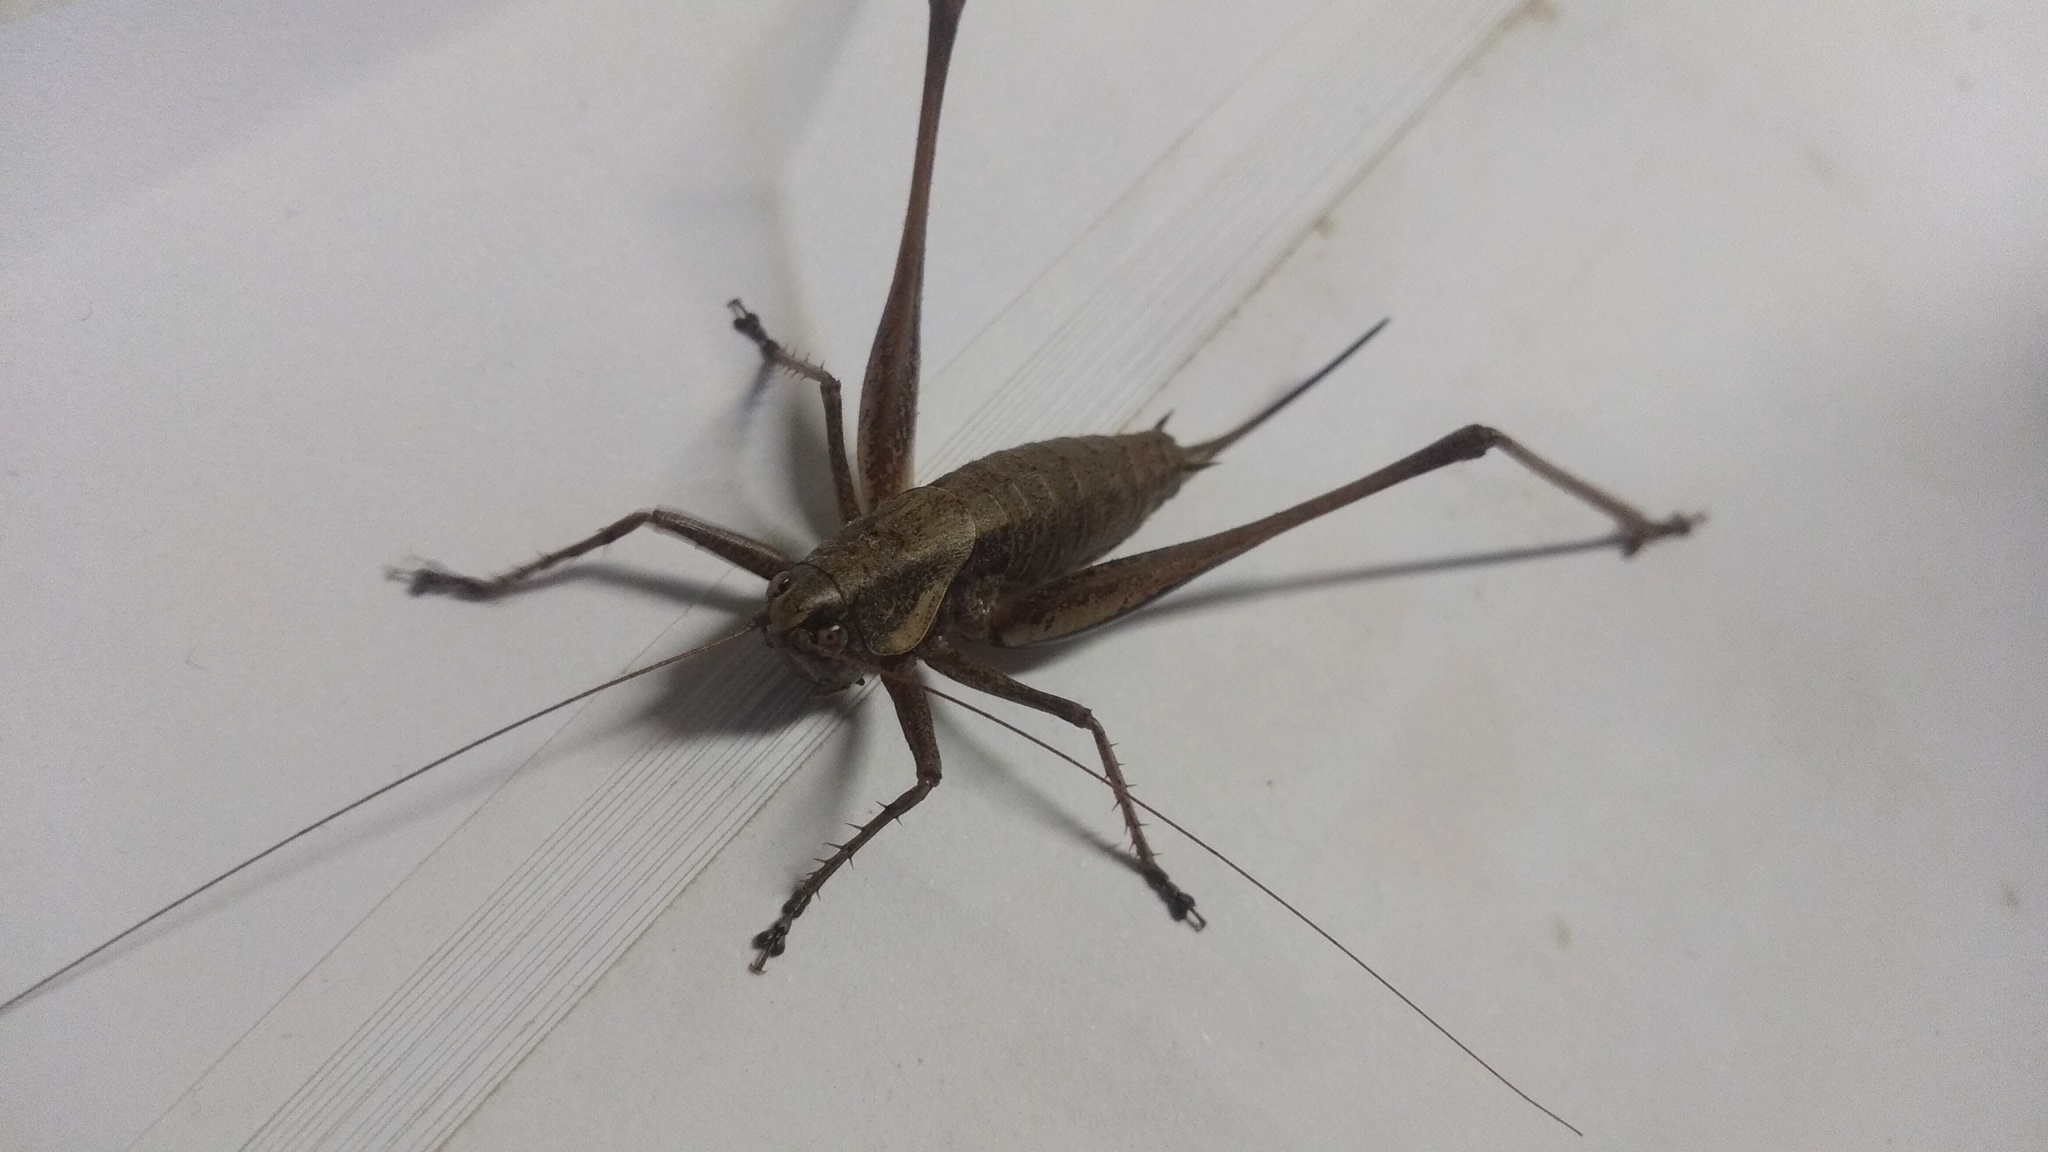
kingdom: Animalia
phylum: Arthropoda
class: Insecta
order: Orthoptera
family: Tettigoniidae
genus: Rhacocleis
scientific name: Rhacocleis poneli
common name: Ponel's bush-cricket
